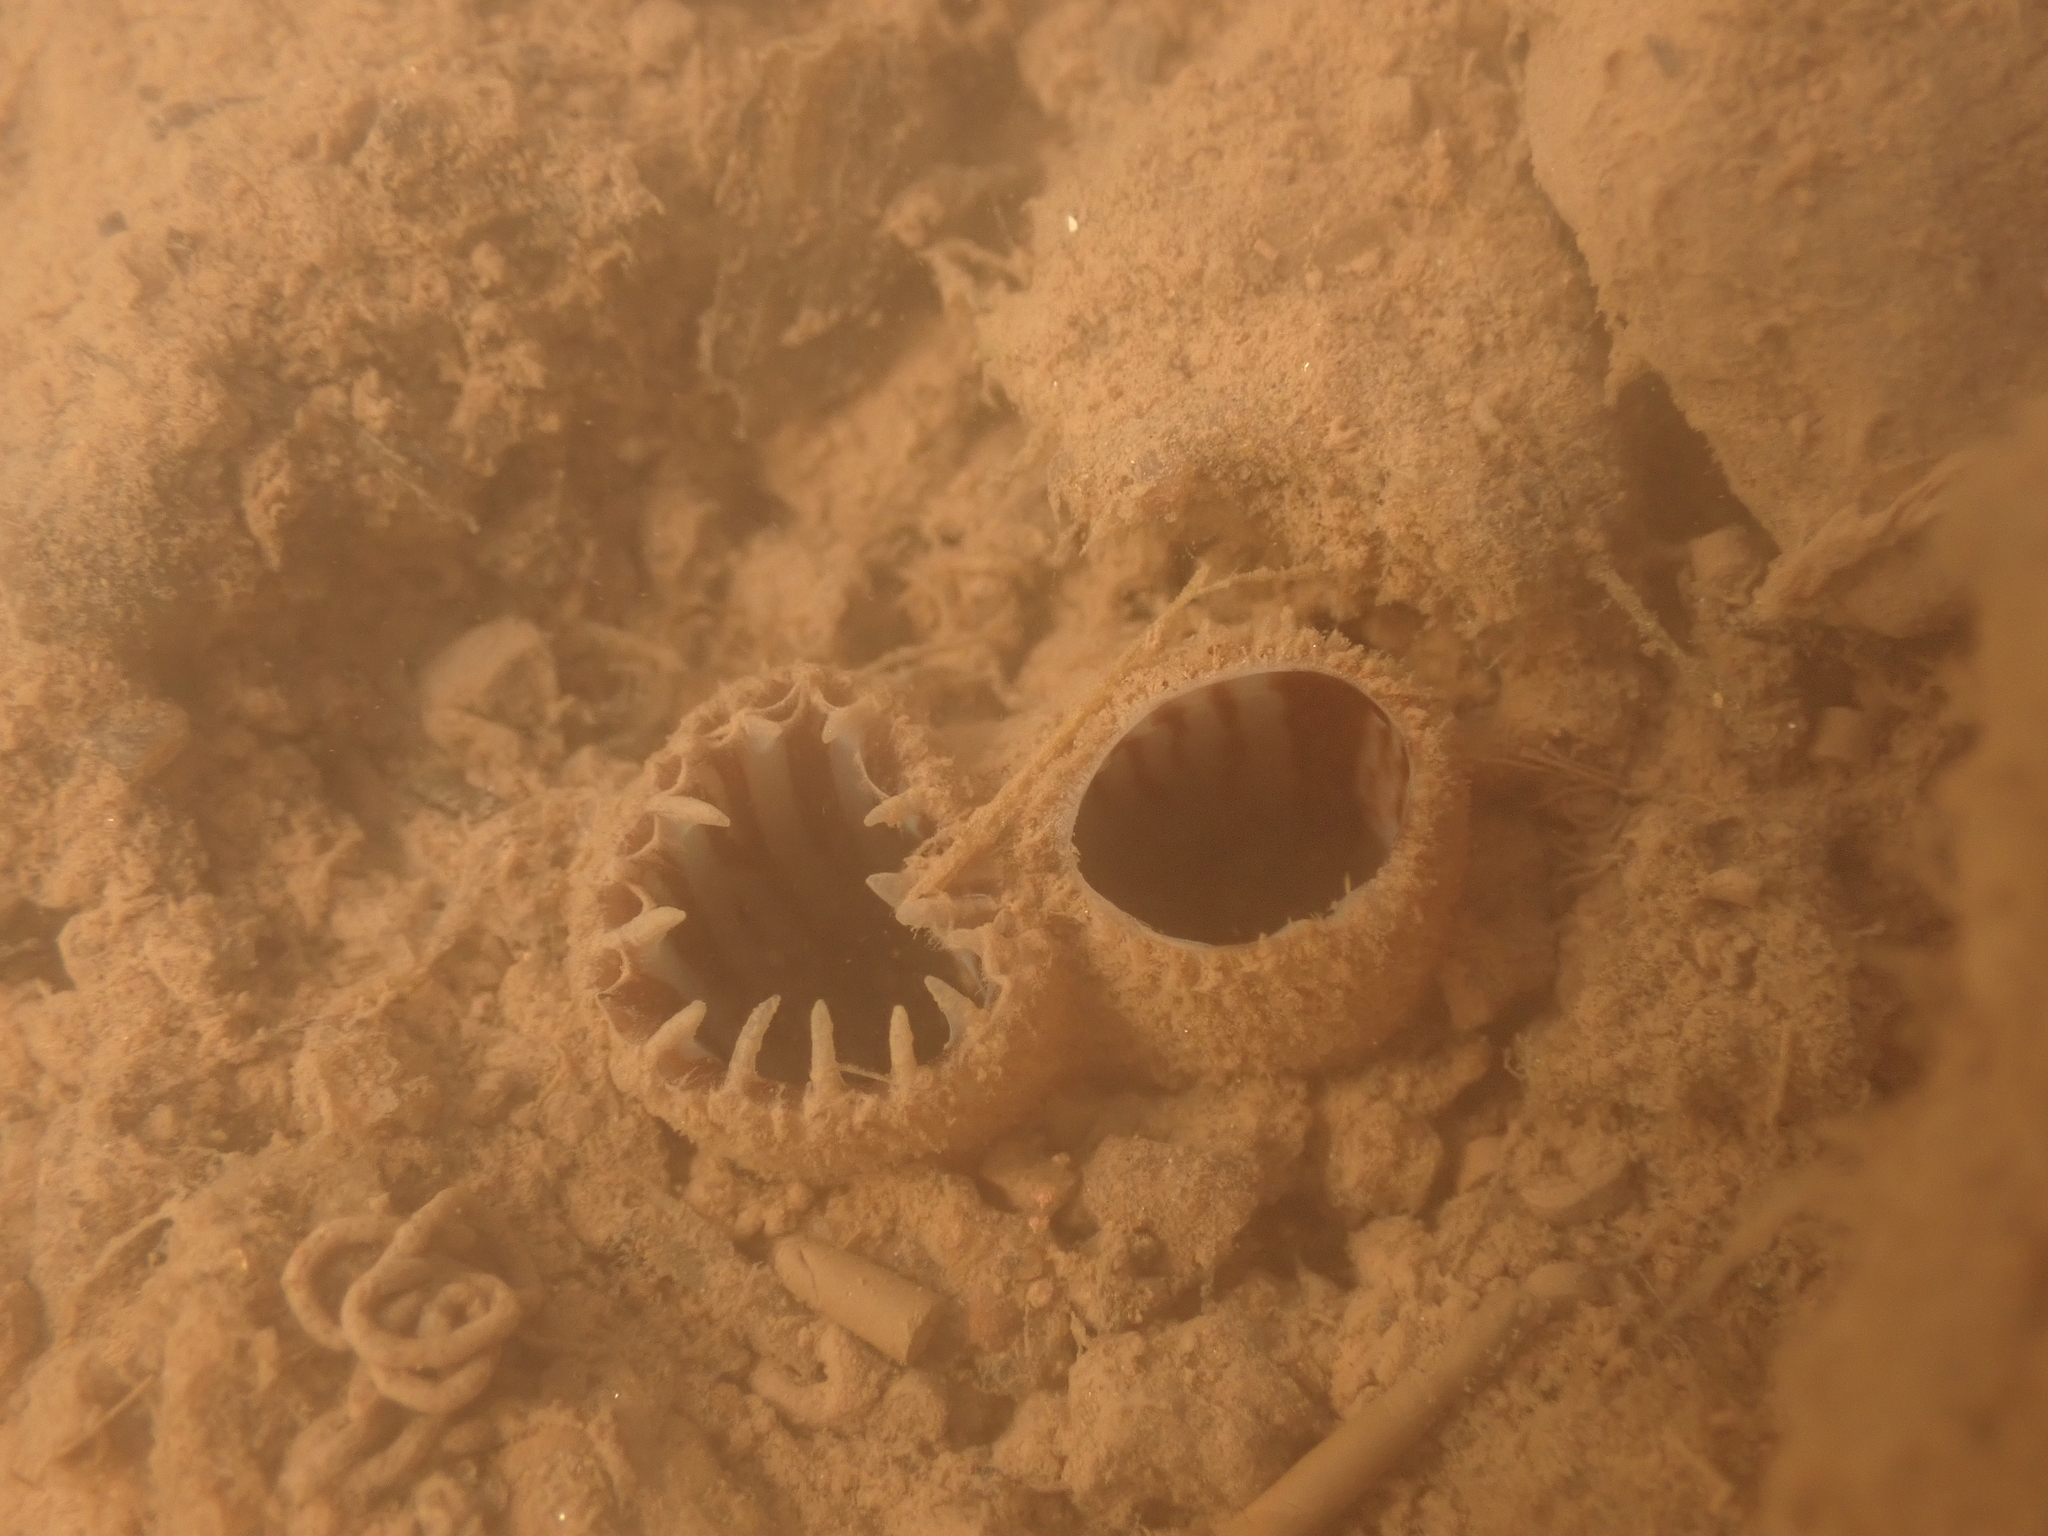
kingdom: Animalia
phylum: Mollusca
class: Bivalvia
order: Myida
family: Myidae
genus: Mya
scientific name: Mya arenaria
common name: Soft-shelled clam
